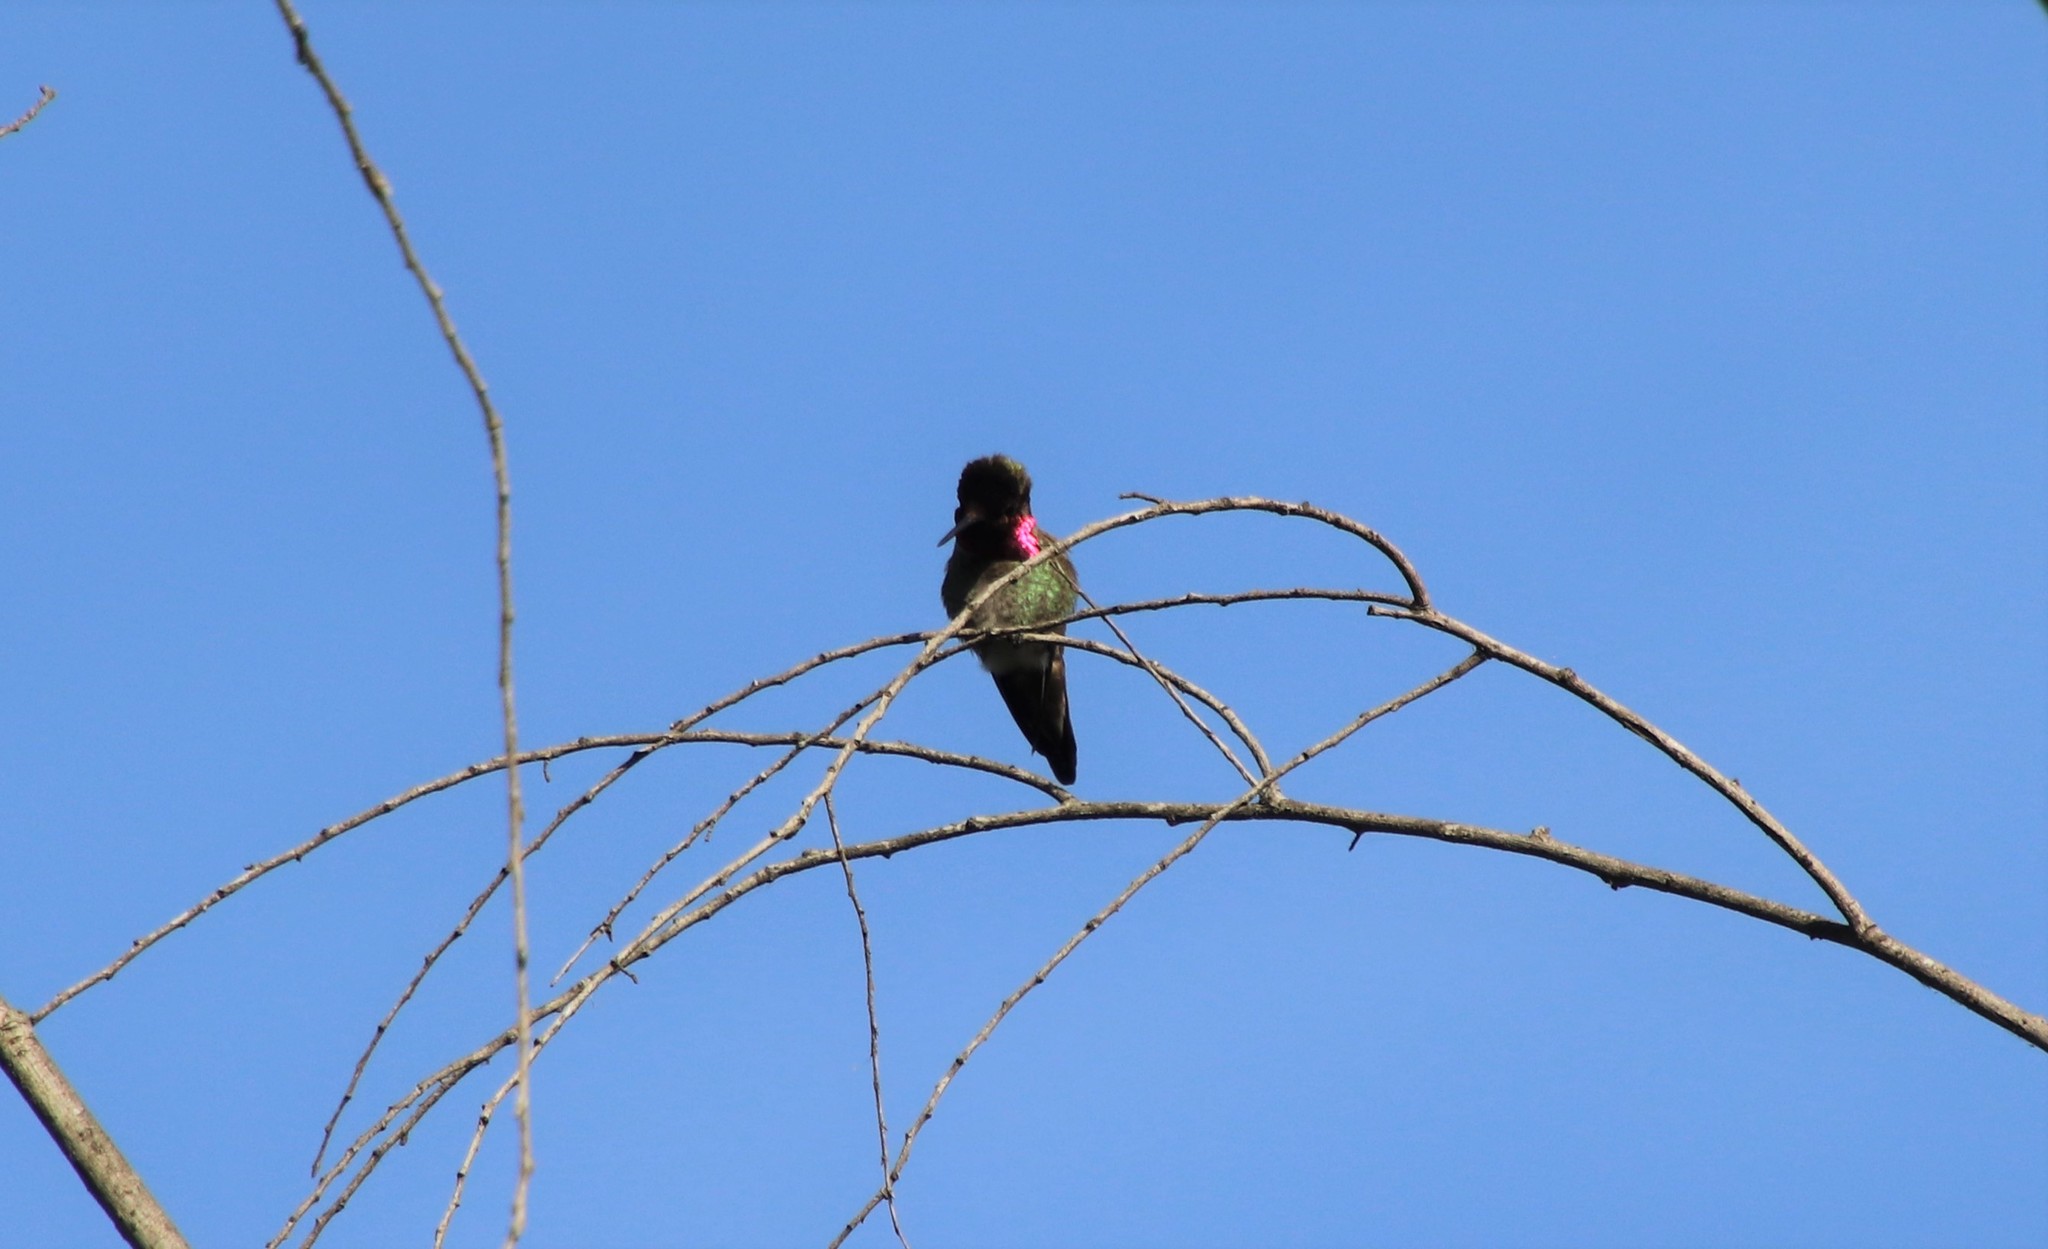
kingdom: Animalia
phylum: Chordata
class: Aves
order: Apodiformes
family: Trochilidae
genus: Calypte
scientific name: Calypte anna
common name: Anna's hummingbird
